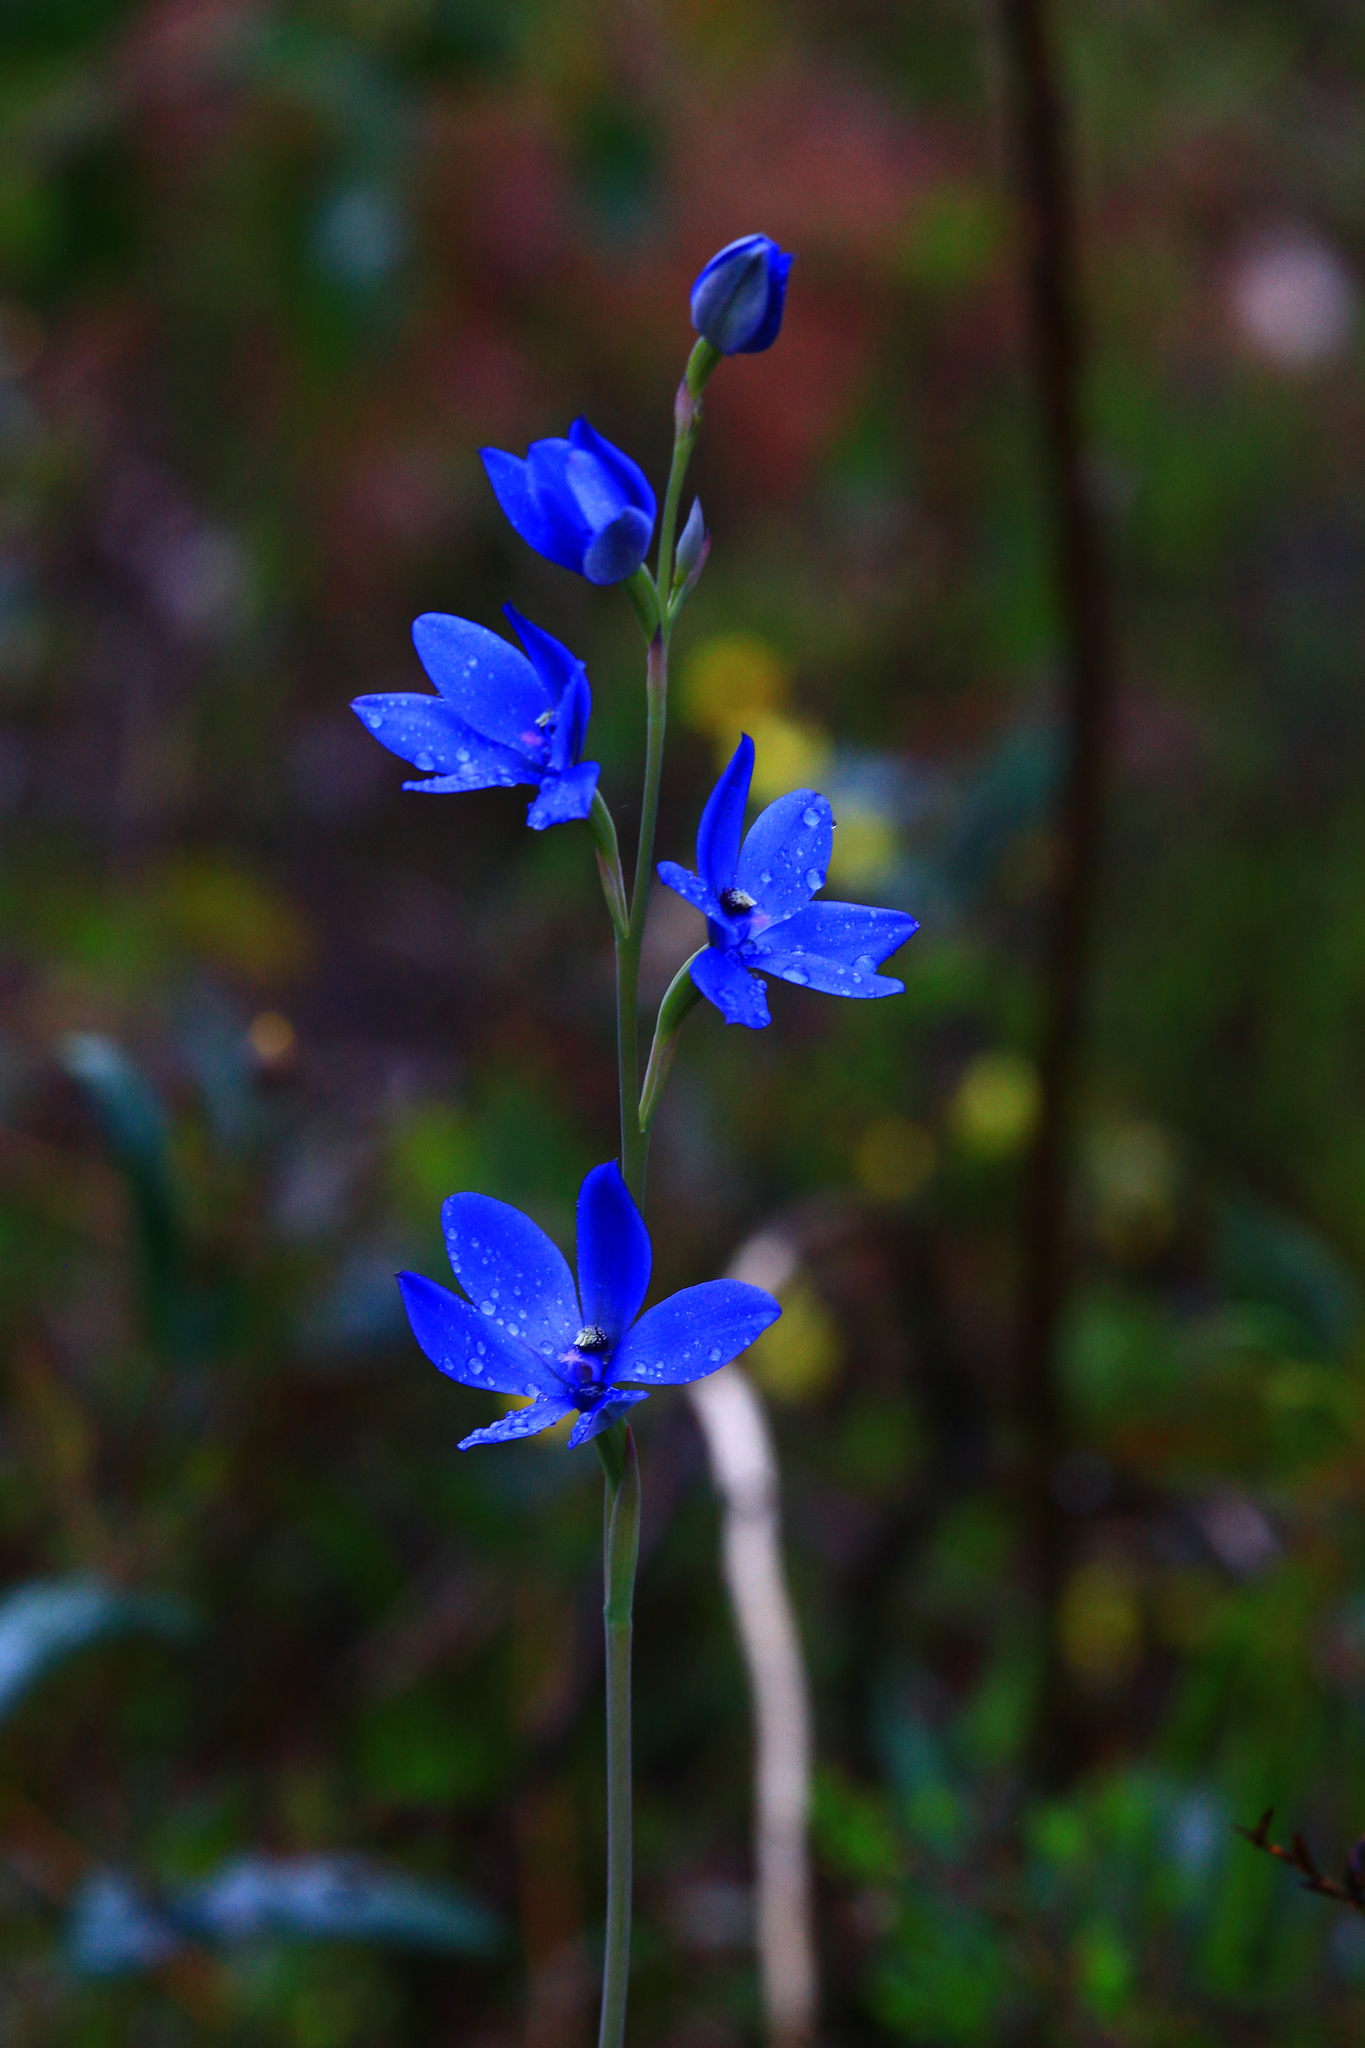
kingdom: Plantae
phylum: Tracheophyta
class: Liliopsida
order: Asparagales
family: Orchidaceae
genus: Thelymitra
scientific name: Thelymitra crinita
